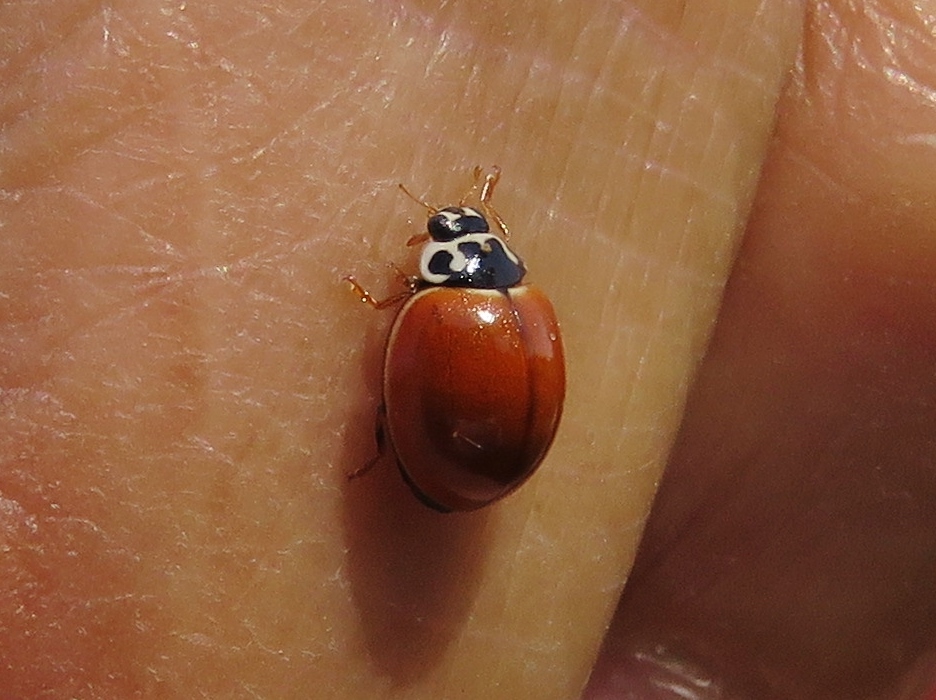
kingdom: Animalia
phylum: Arthropoda
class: Insecta
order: Coleoptera
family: Coccinellidae
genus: Cycloneda
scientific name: Cycloneda munda
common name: Polished lady beetle
